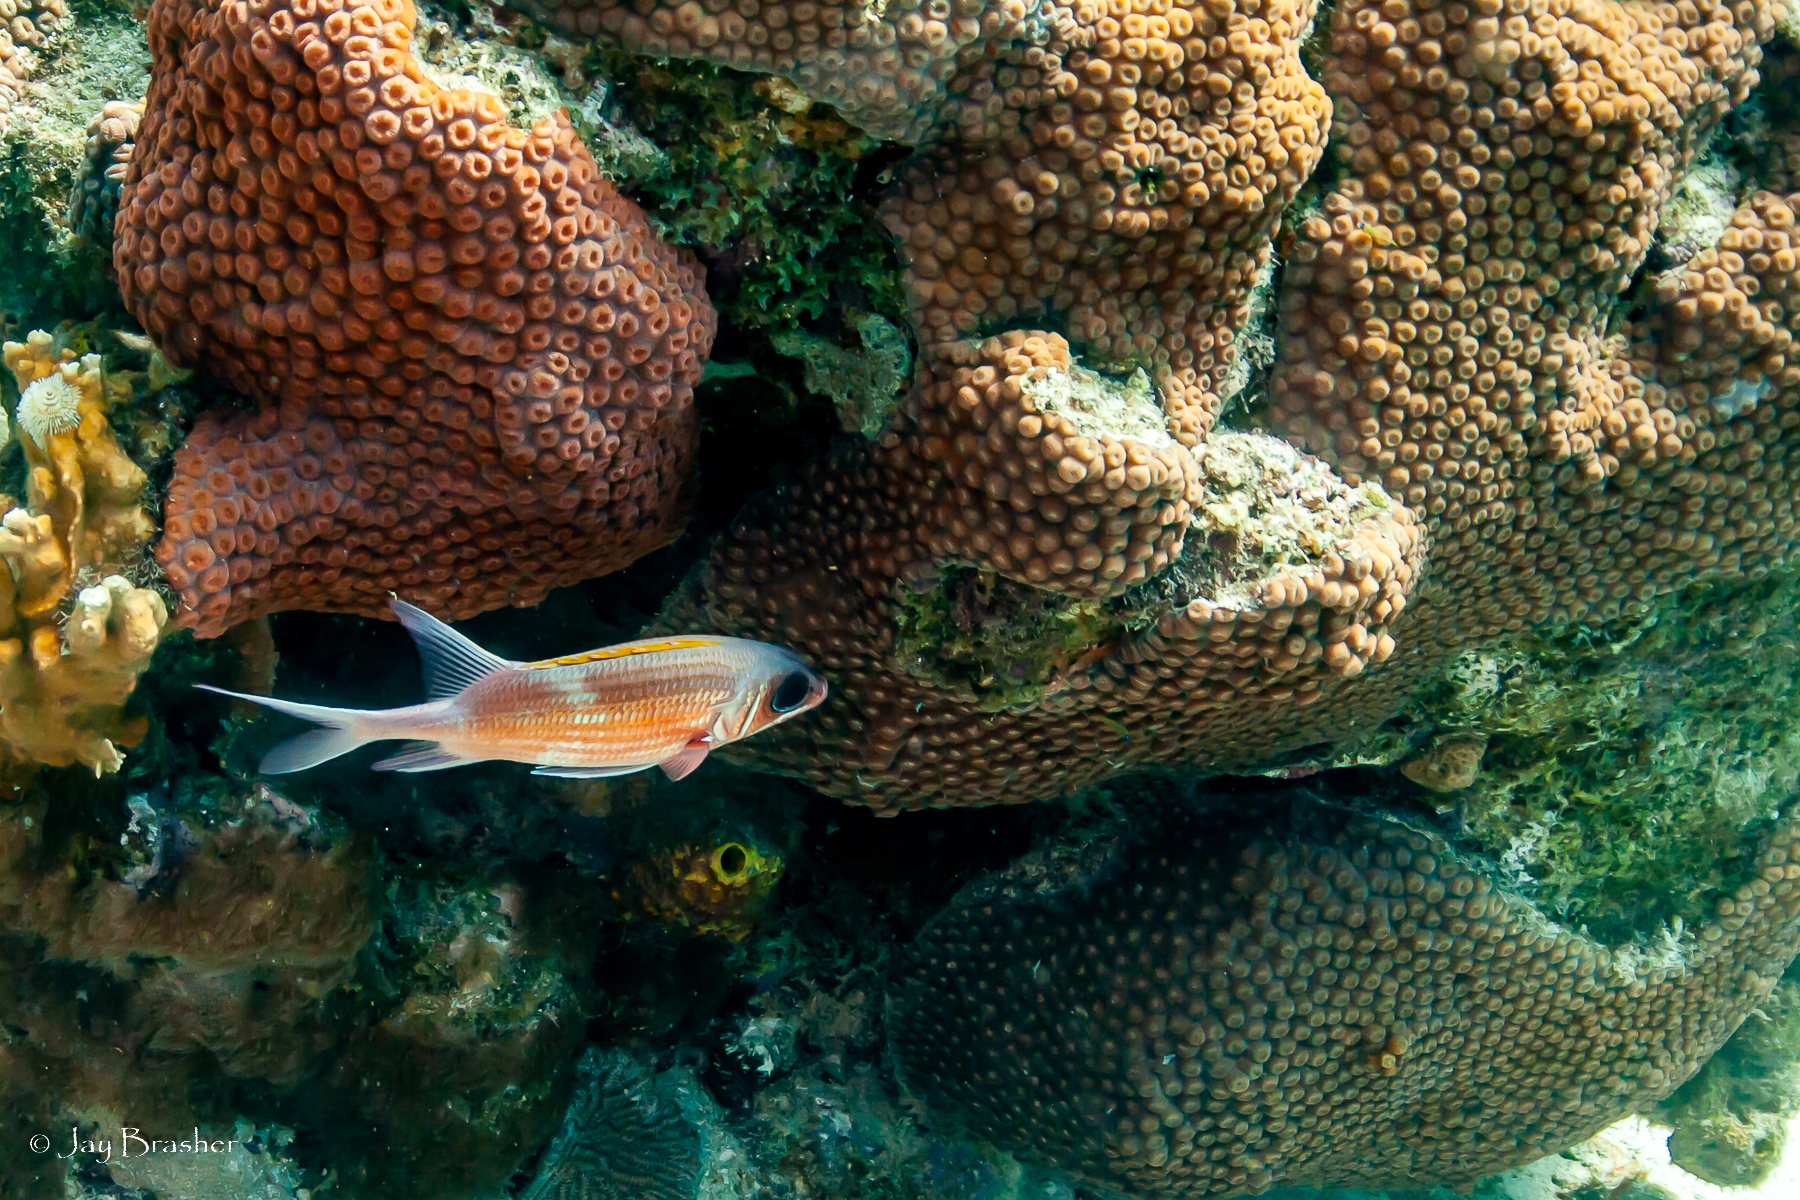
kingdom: Animalia
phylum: Cnidaria
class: Anthozoa
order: Scleractinia
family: Montastraeidae
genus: Montastraea
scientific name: Montastraea cavernosa
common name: Great star coral
